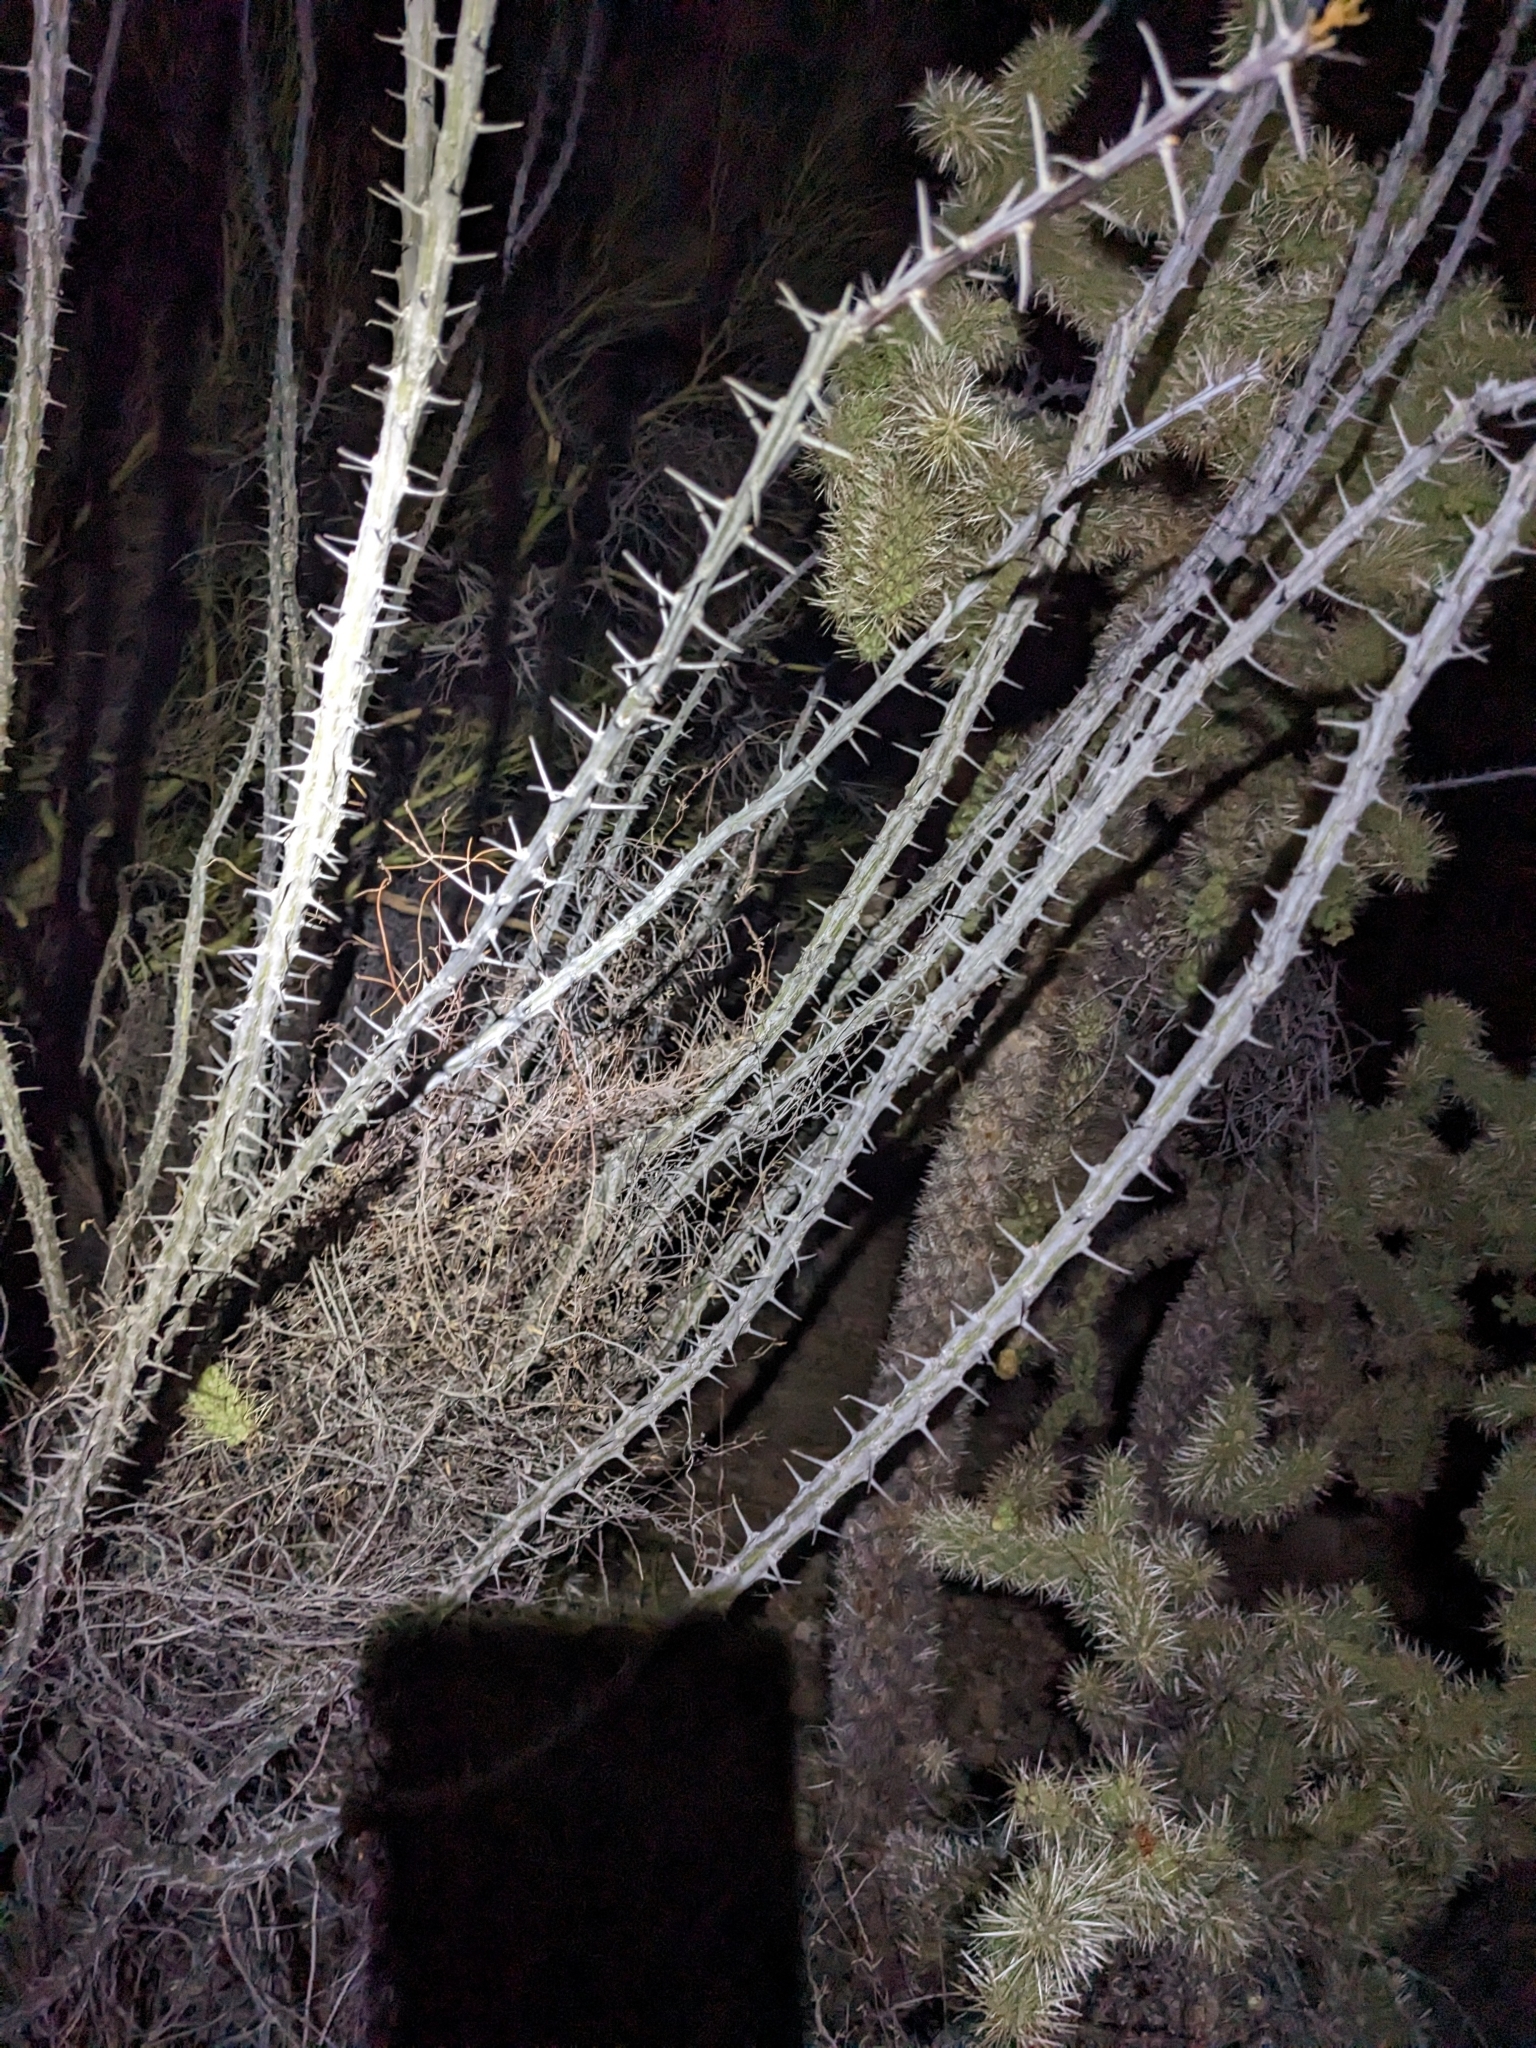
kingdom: Animalia
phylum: Chordata
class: Aves
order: Passeriformes
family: Mimidae
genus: Toxostoma
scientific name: Toxostoma curvirostre
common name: Curve-billed thrasher
